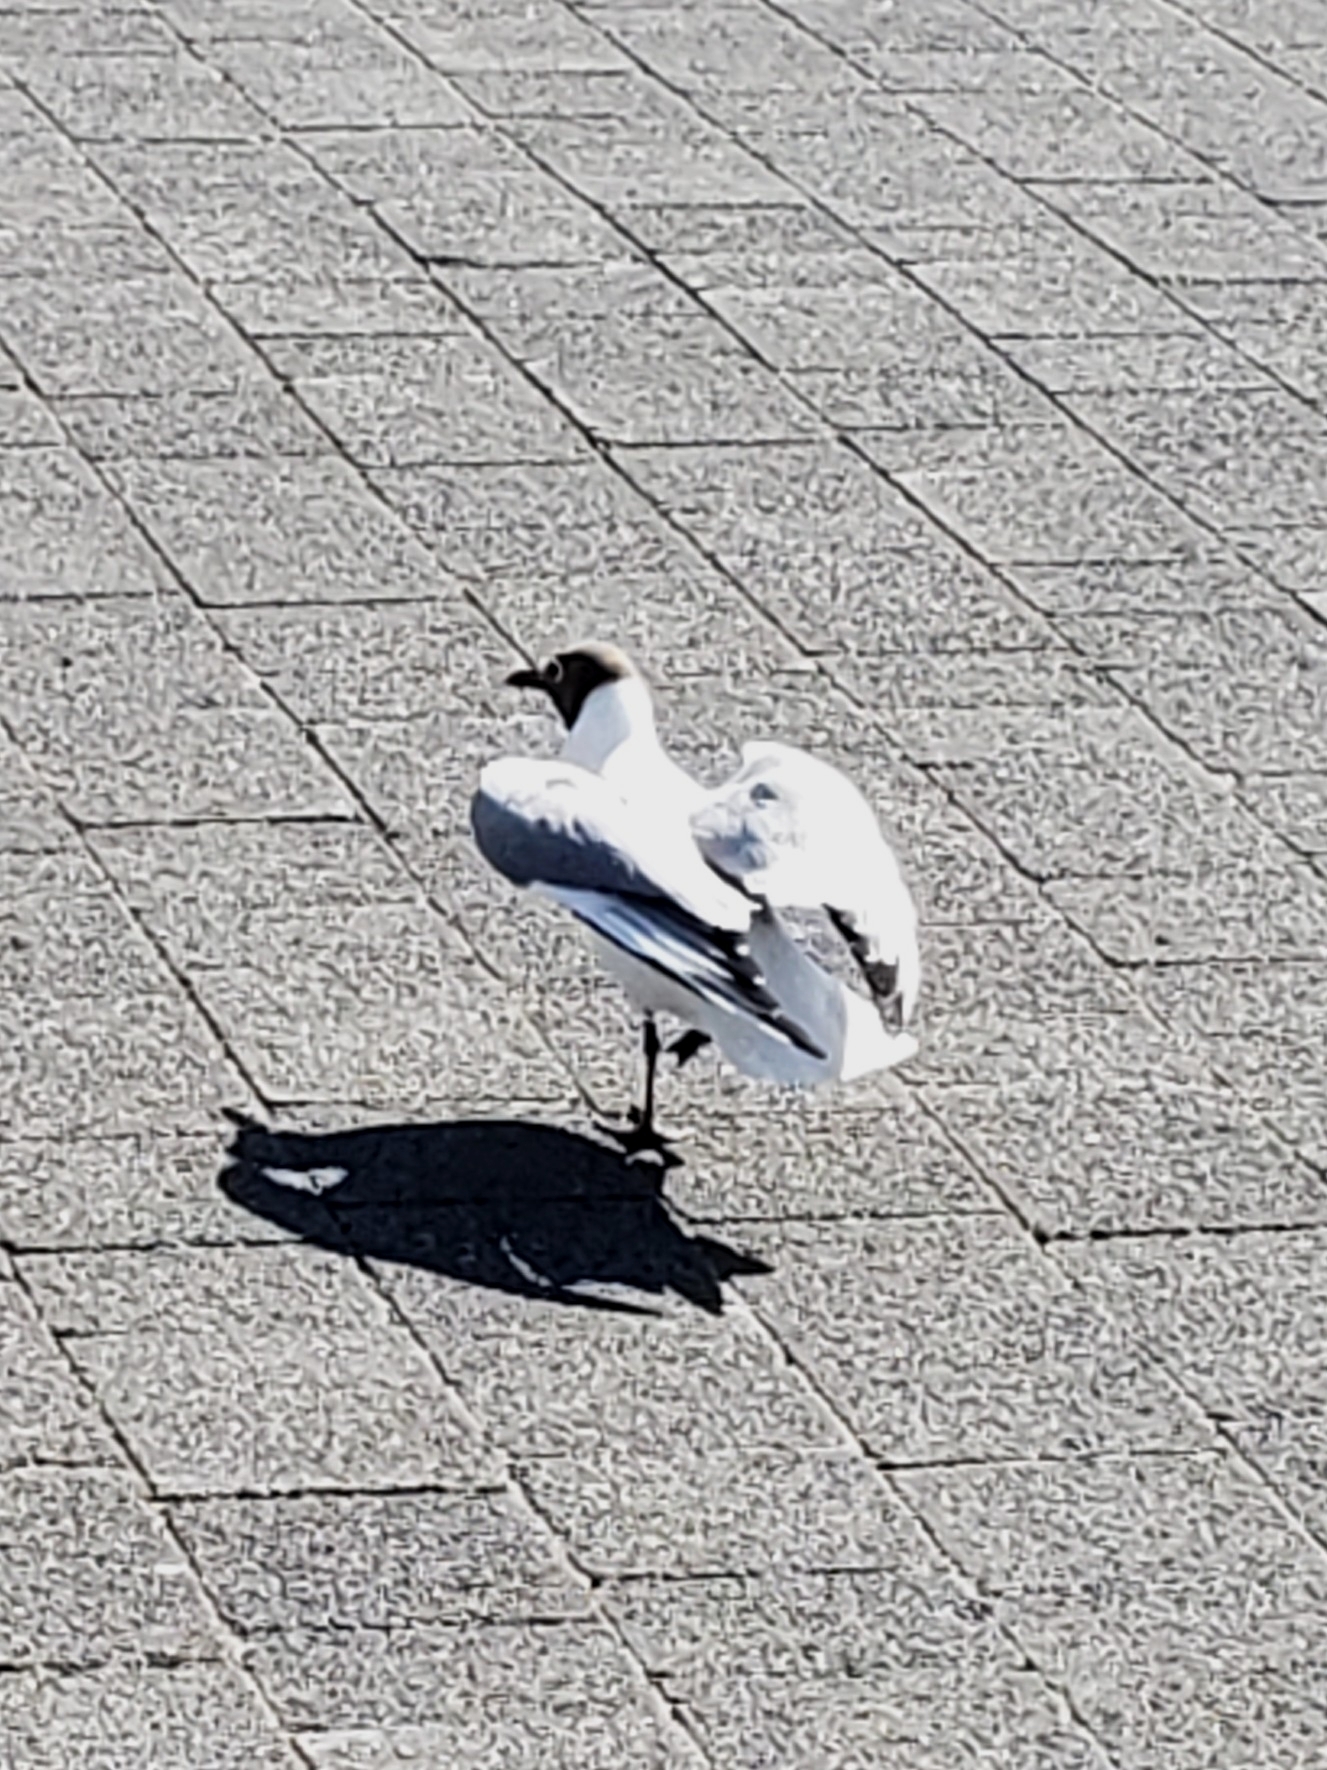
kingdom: Animalia
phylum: Chordata
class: Aves
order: Charadriiformes
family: Laridae
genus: Chroicocephalus
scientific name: Chroicocephalus ridibundus
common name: Black-headed gull
